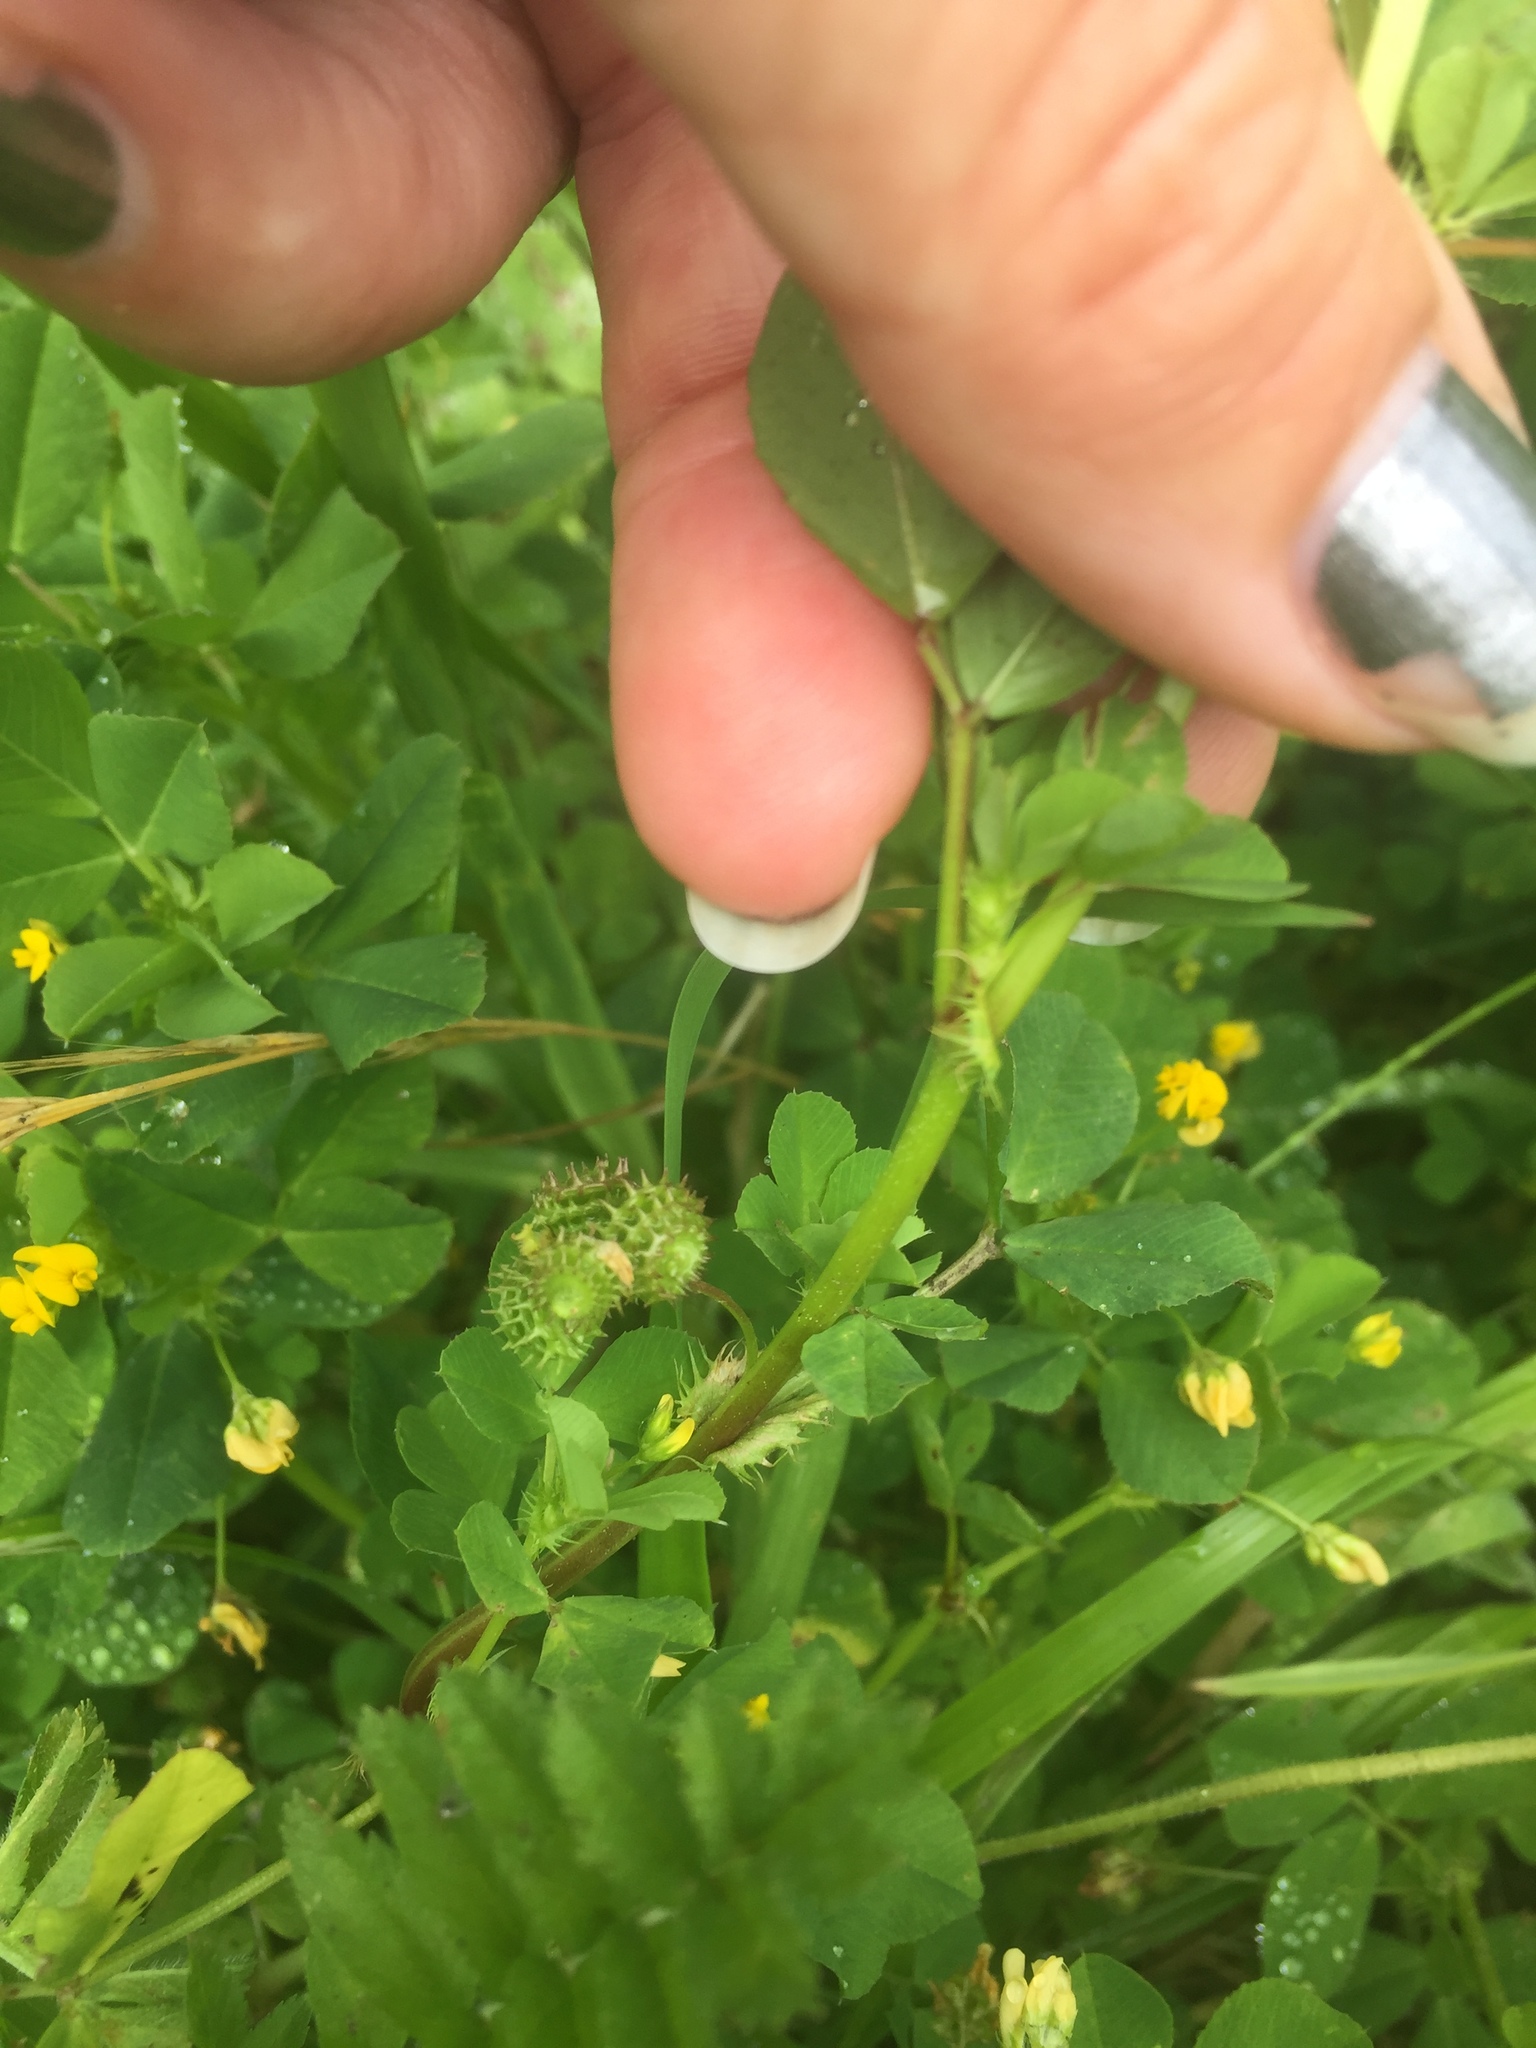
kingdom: Plantae
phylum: Tracheophyta
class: Magnoliopsida
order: Fabales
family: Fabaceae
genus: Medicago
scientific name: Medicago polymorpha
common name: Burclover
